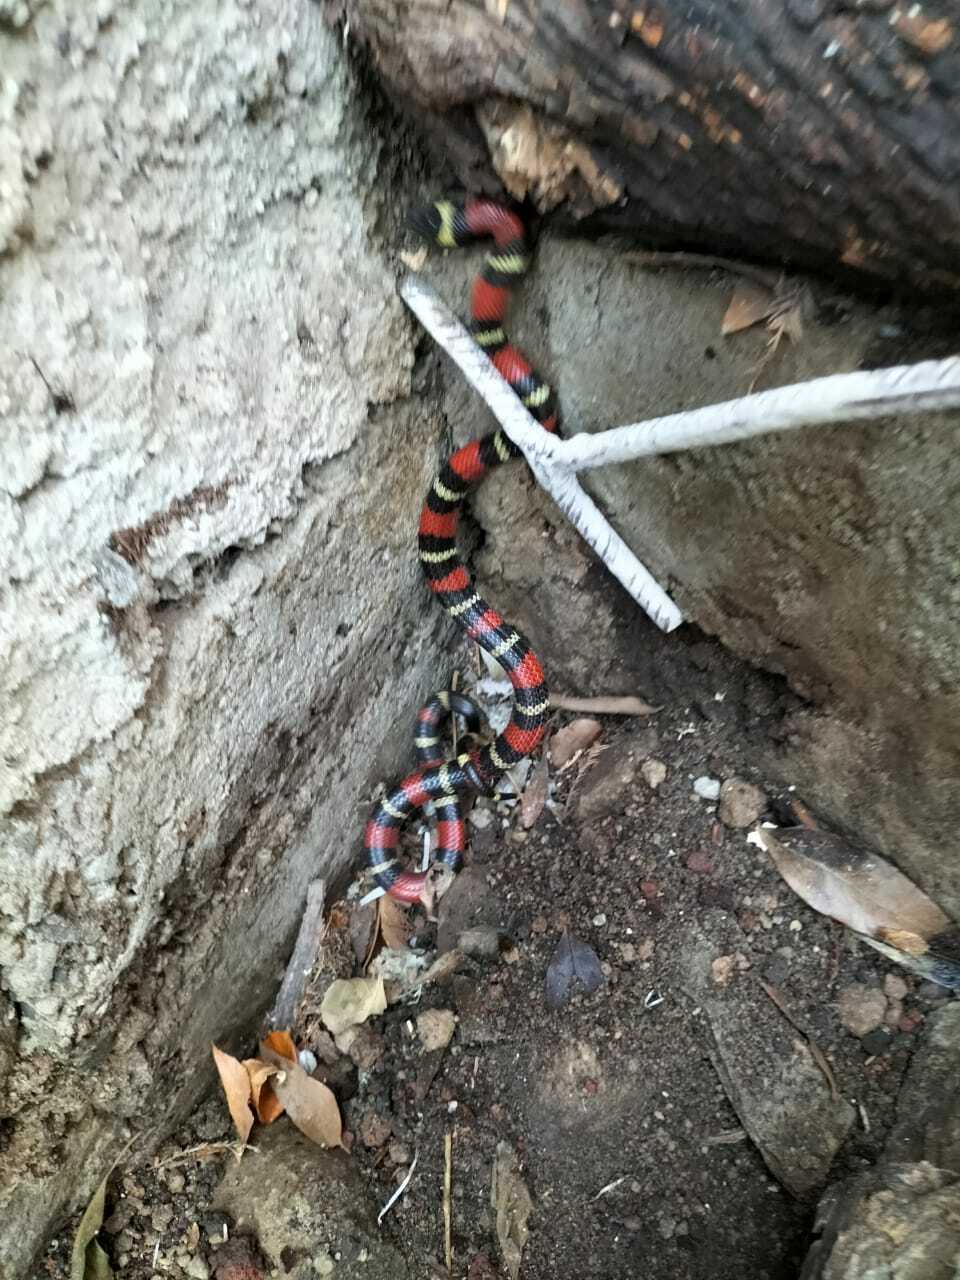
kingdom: Animalia
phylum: Chordata
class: Squamata
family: Colubridae
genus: Lampropeltis
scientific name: Lampropeltis polyzona
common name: Atlantic central american milksnake
